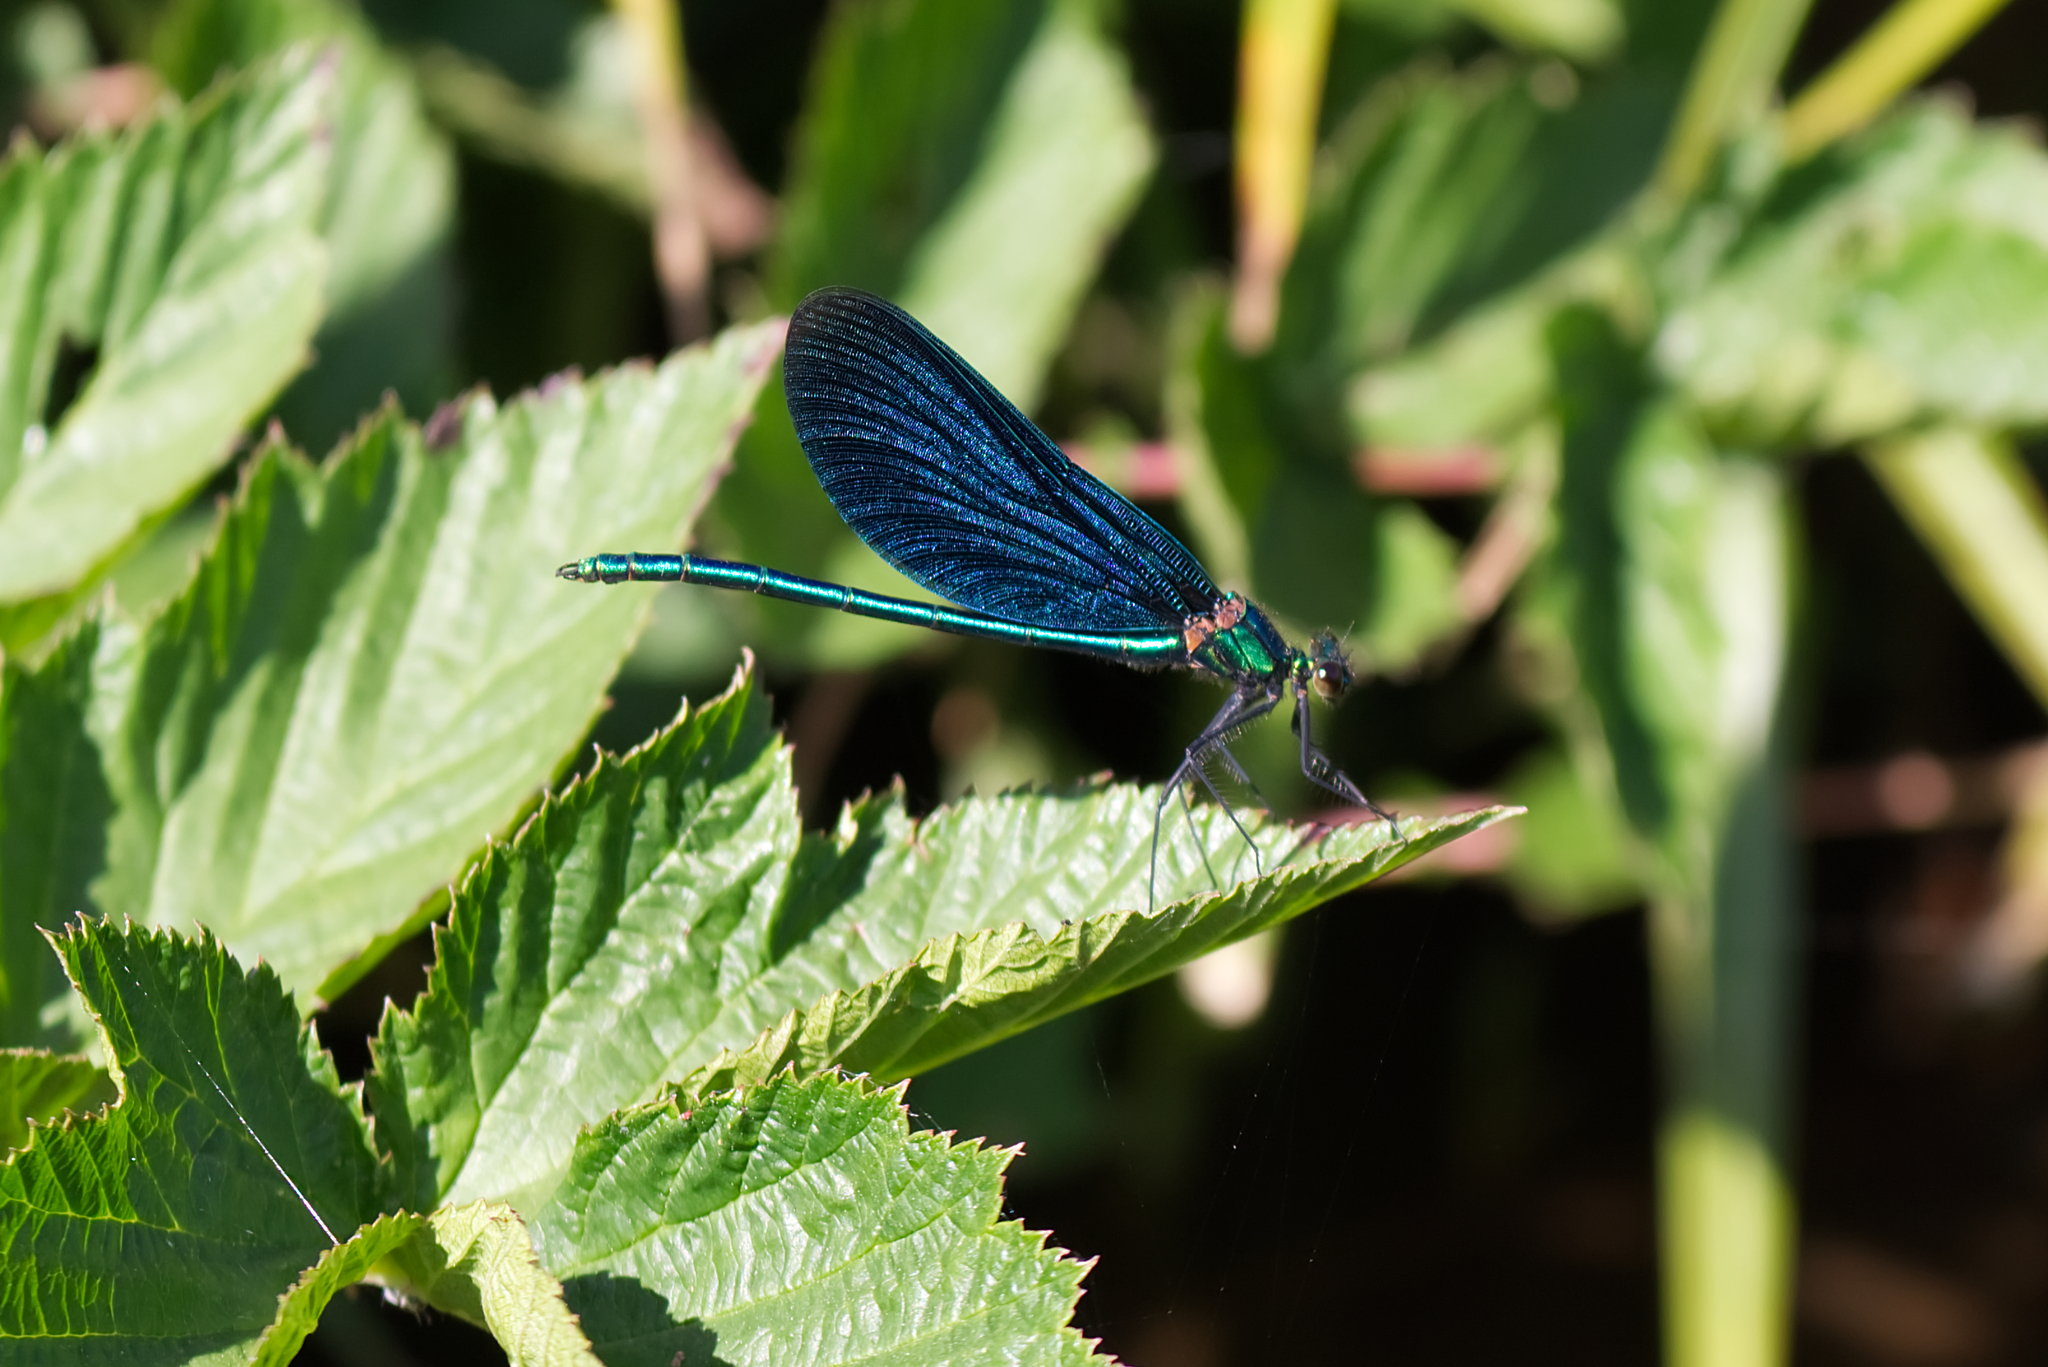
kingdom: Animalia
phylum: Arthropoda
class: Insecta
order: Odonata
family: Calopterygidae
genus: Calopteryx
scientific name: Calopteryx virgo
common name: Beautiful demoiselle
